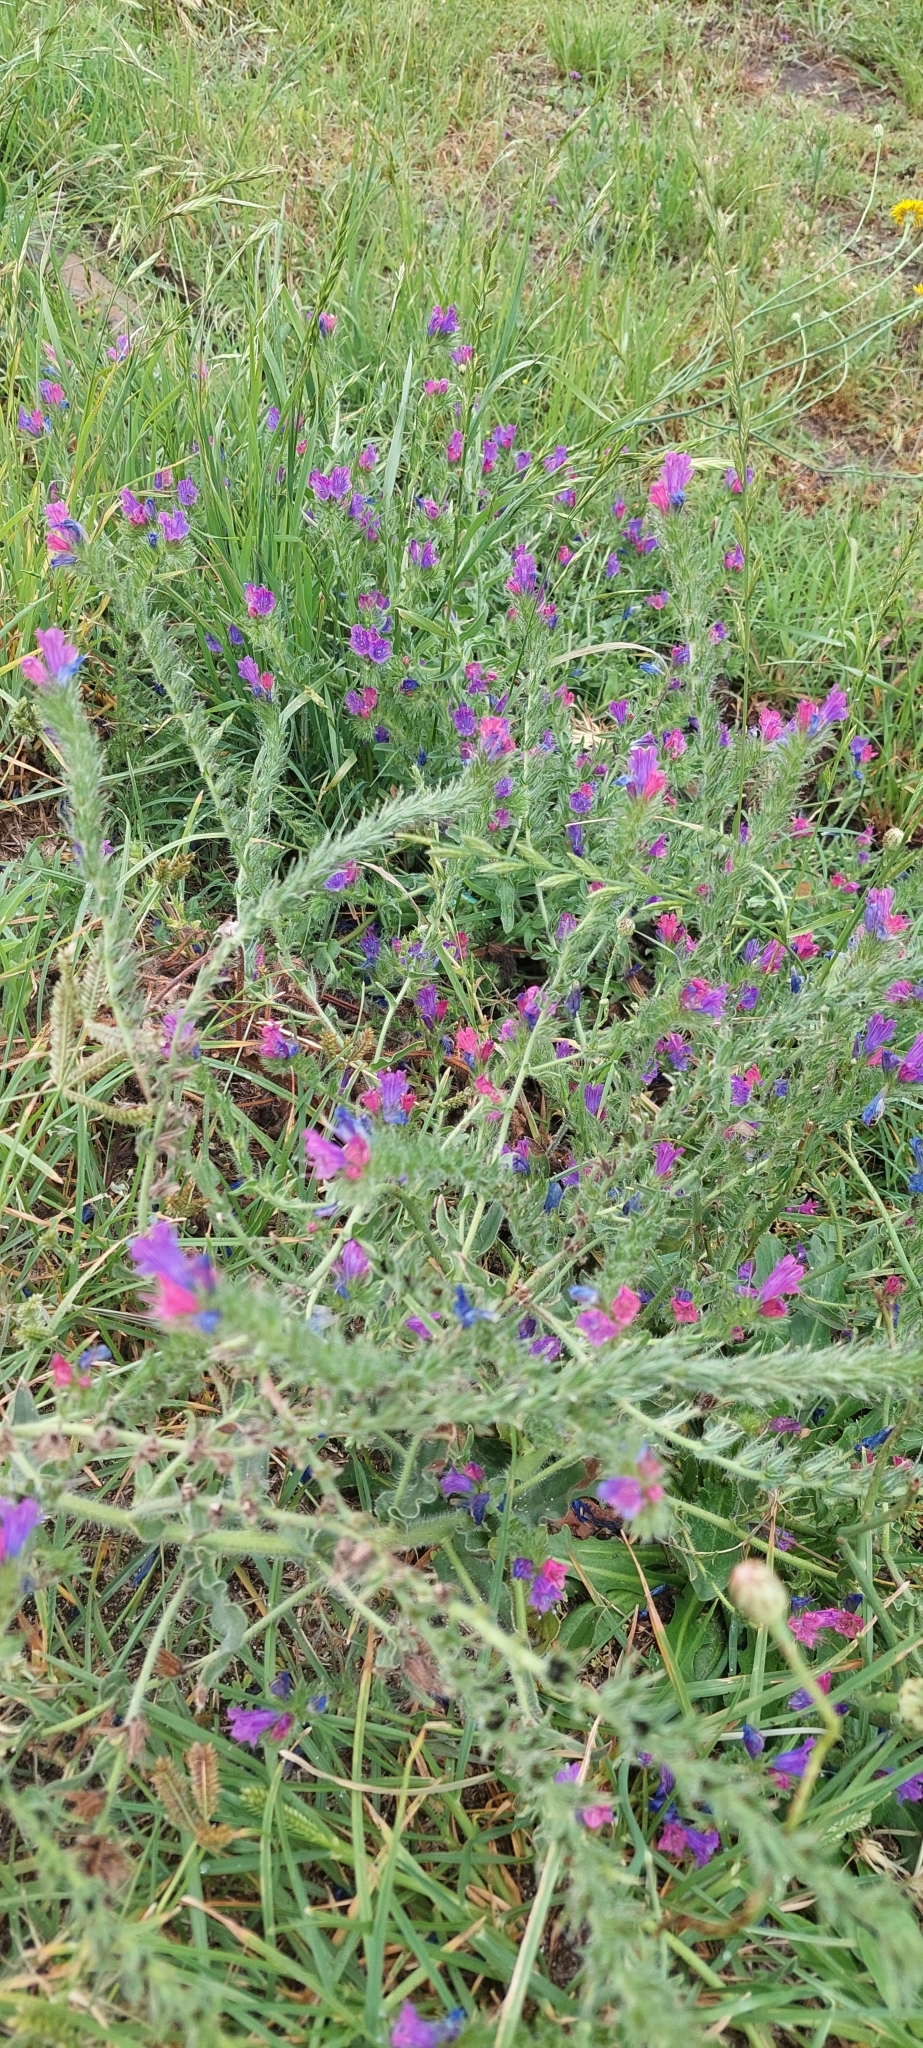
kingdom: Plantae
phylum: Tracheophyta
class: Magnoliopsida
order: Boraginales
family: Boraginaceae
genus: Echium
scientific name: Echium plantagineum
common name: Purple viper's-bugloss
